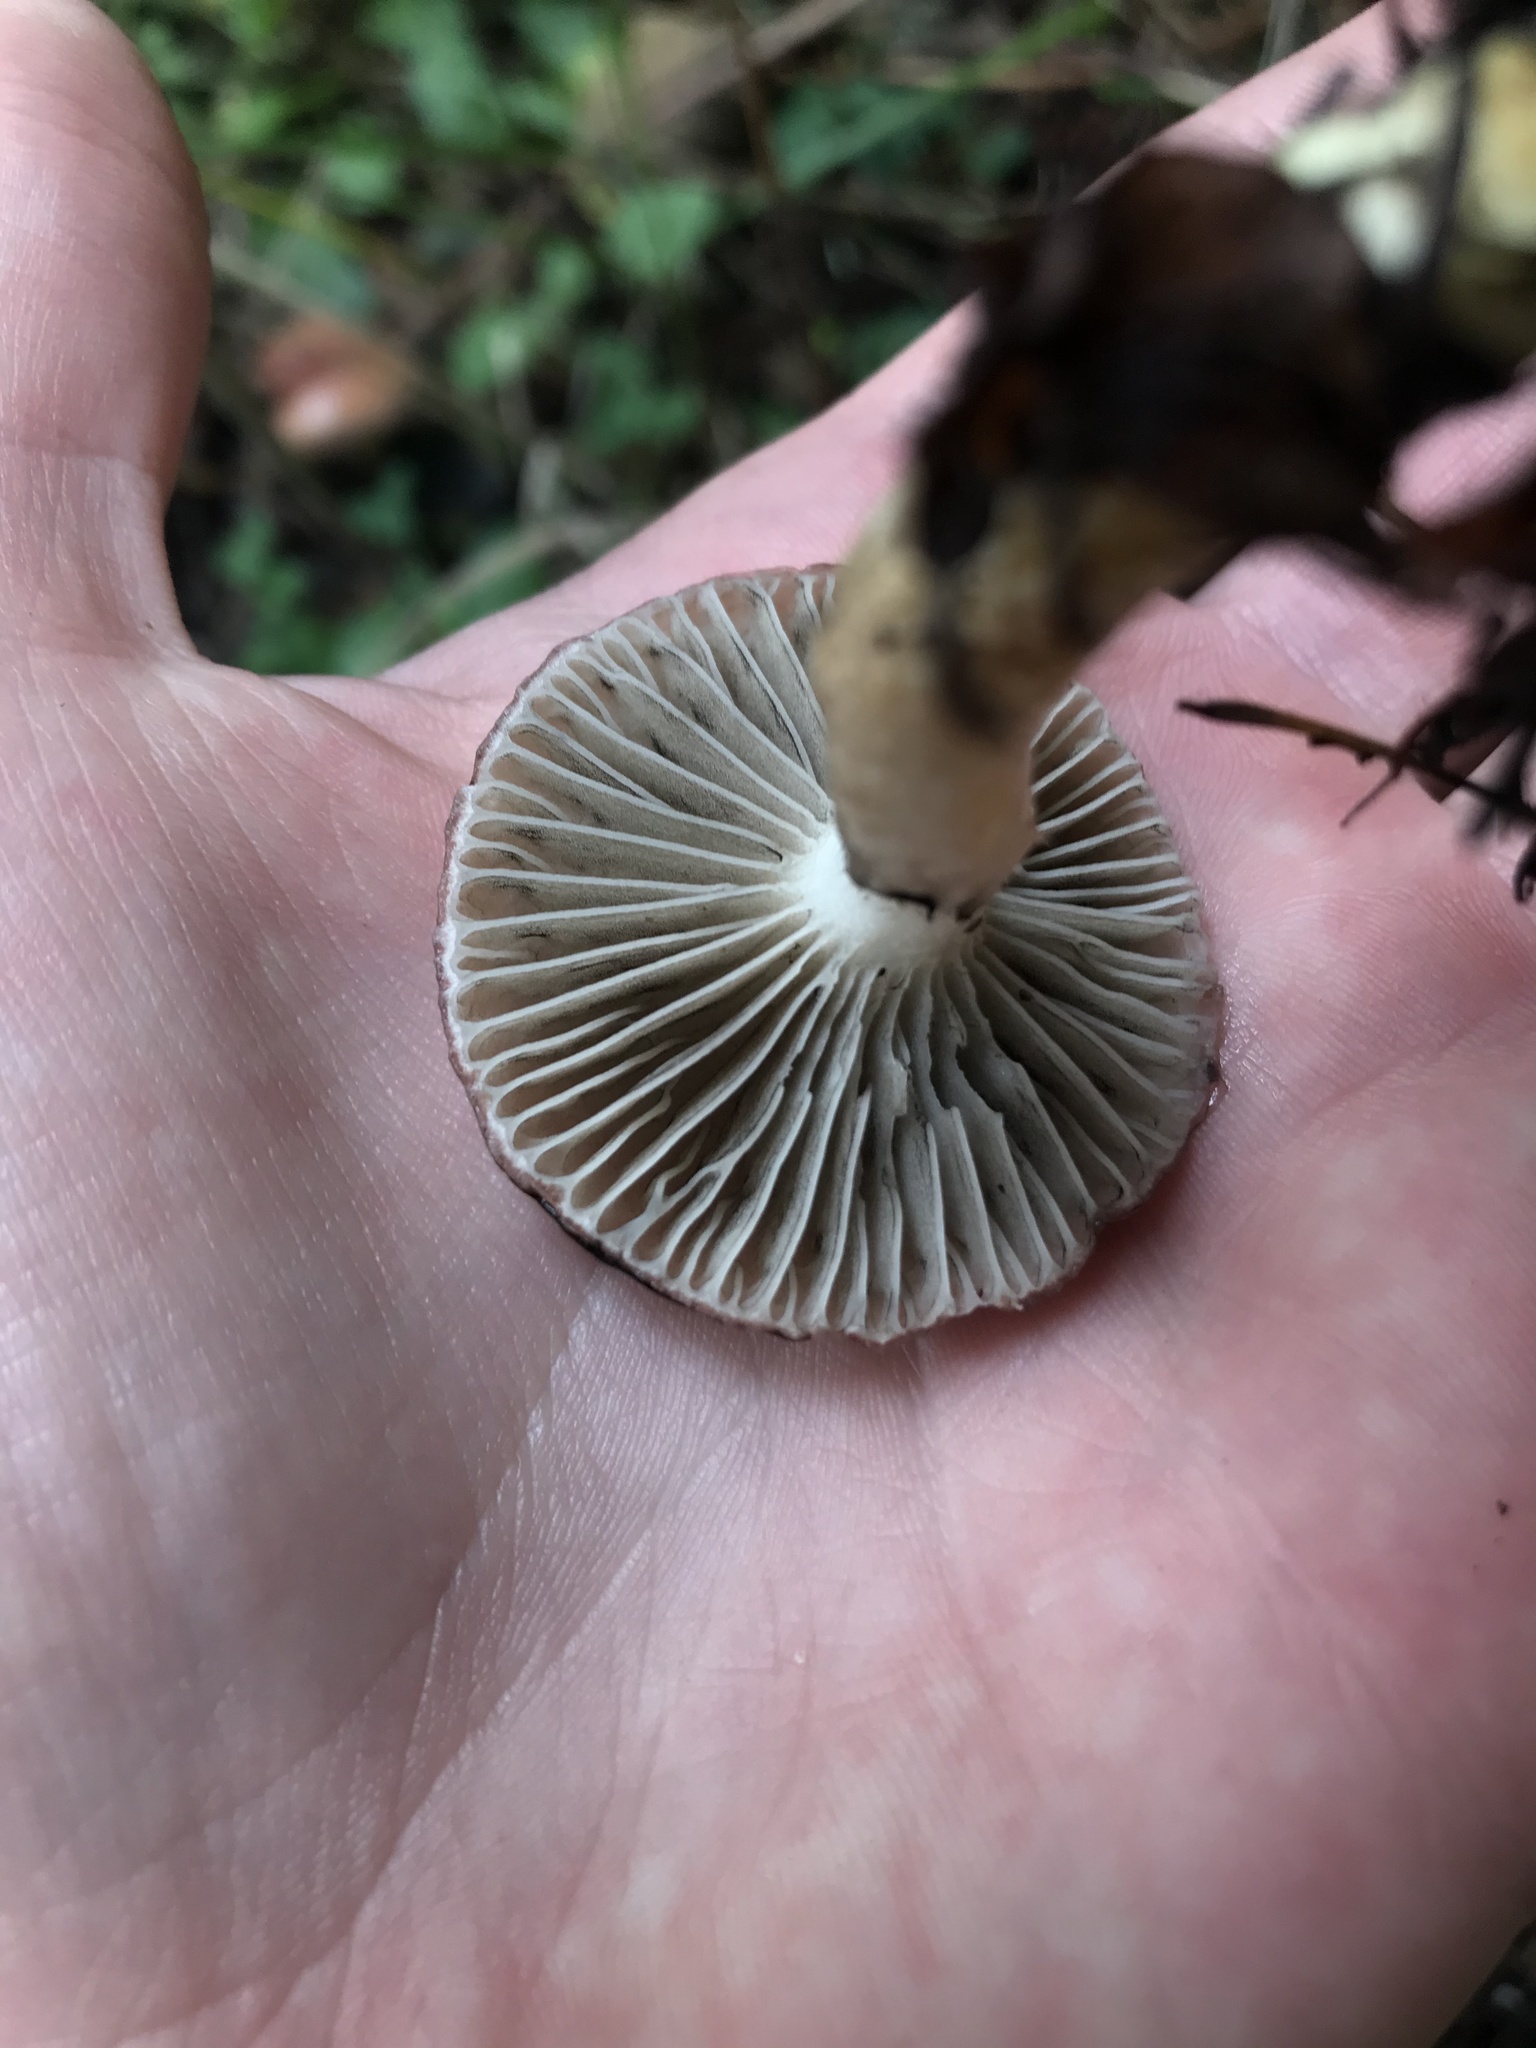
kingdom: Fungi
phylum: Basidiomycota
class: Agaricomycetes
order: Boletales
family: Gomphidiaceae
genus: Gomphidius
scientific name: Gomphidius subroseus
